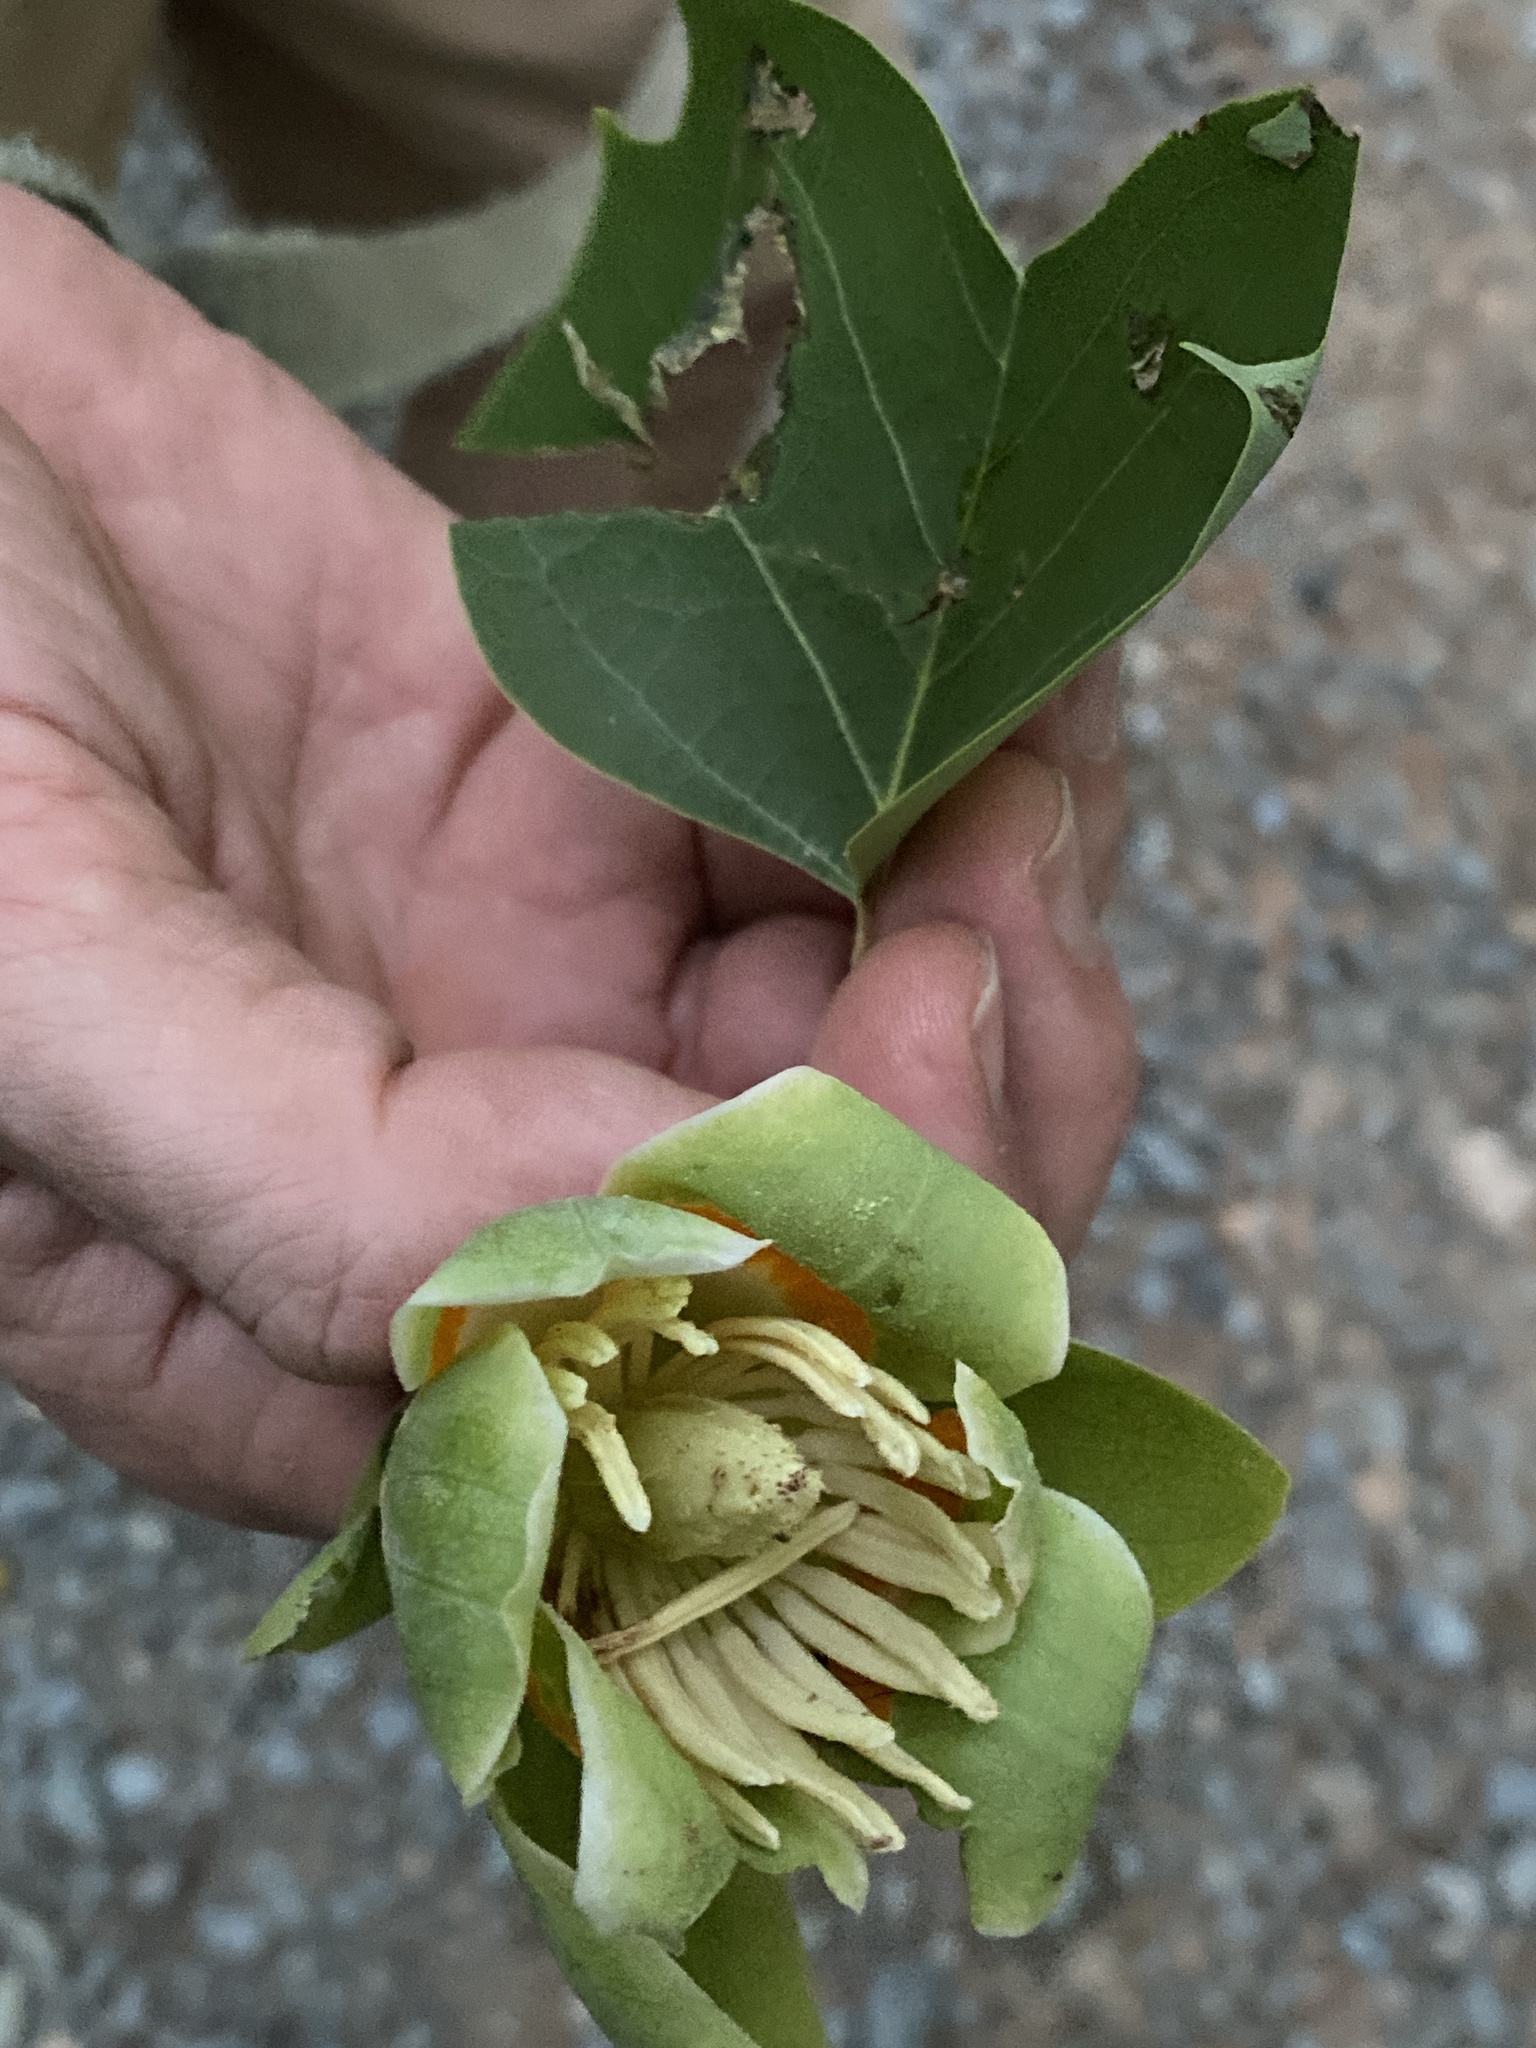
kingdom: Plantae
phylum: Tracheophyta
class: Magnoliopsida
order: Magnoliales
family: Magnoliaceae
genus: Liriodendron
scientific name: Liriodendron tulipifera
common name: Tulip tree
